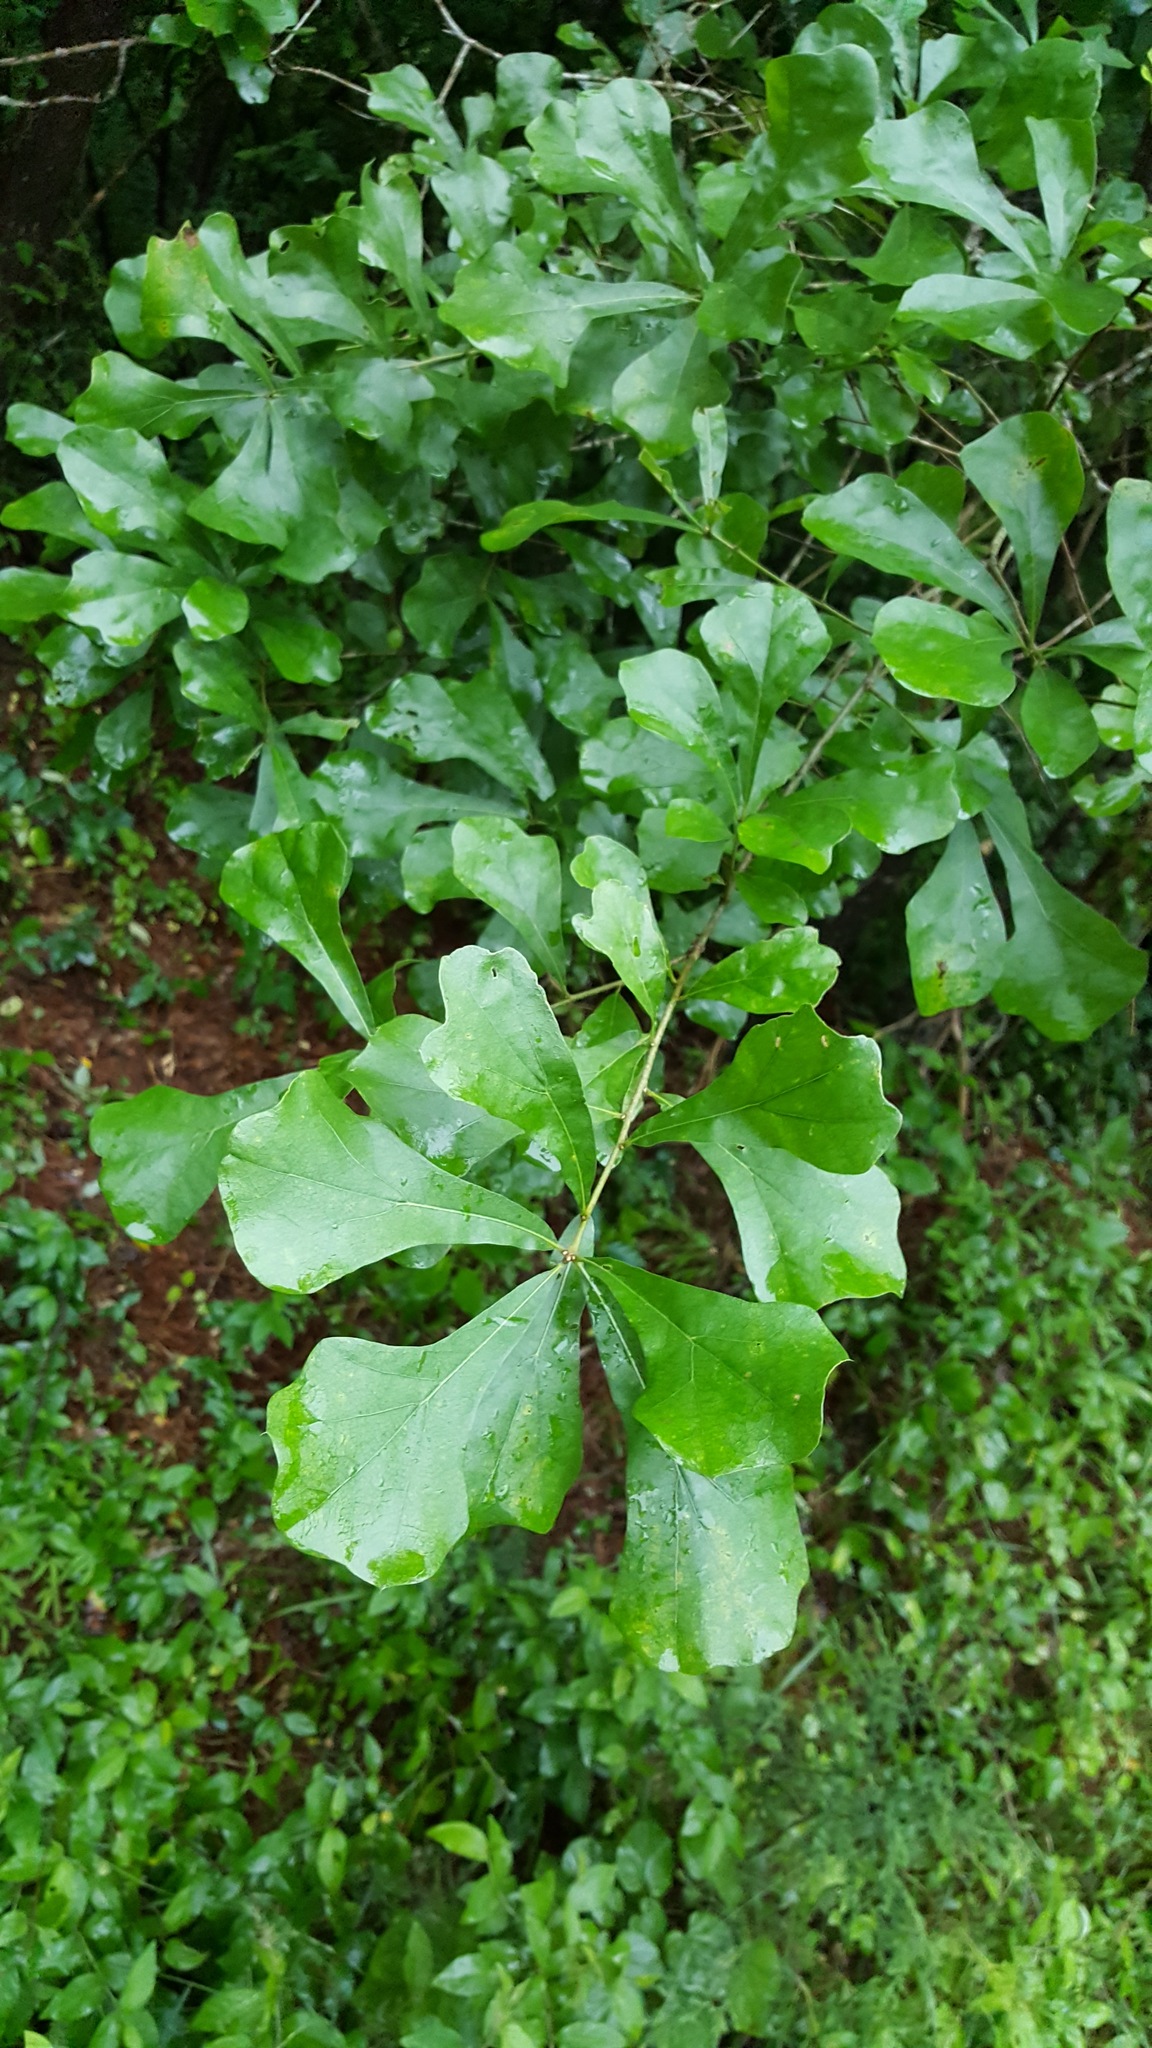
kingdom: Plantae
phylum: Tracheophyta
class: Magnoliopsida
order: Fagales
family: Fagaceae
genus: Quercus
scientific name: Quercus nigra
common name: Water oak
